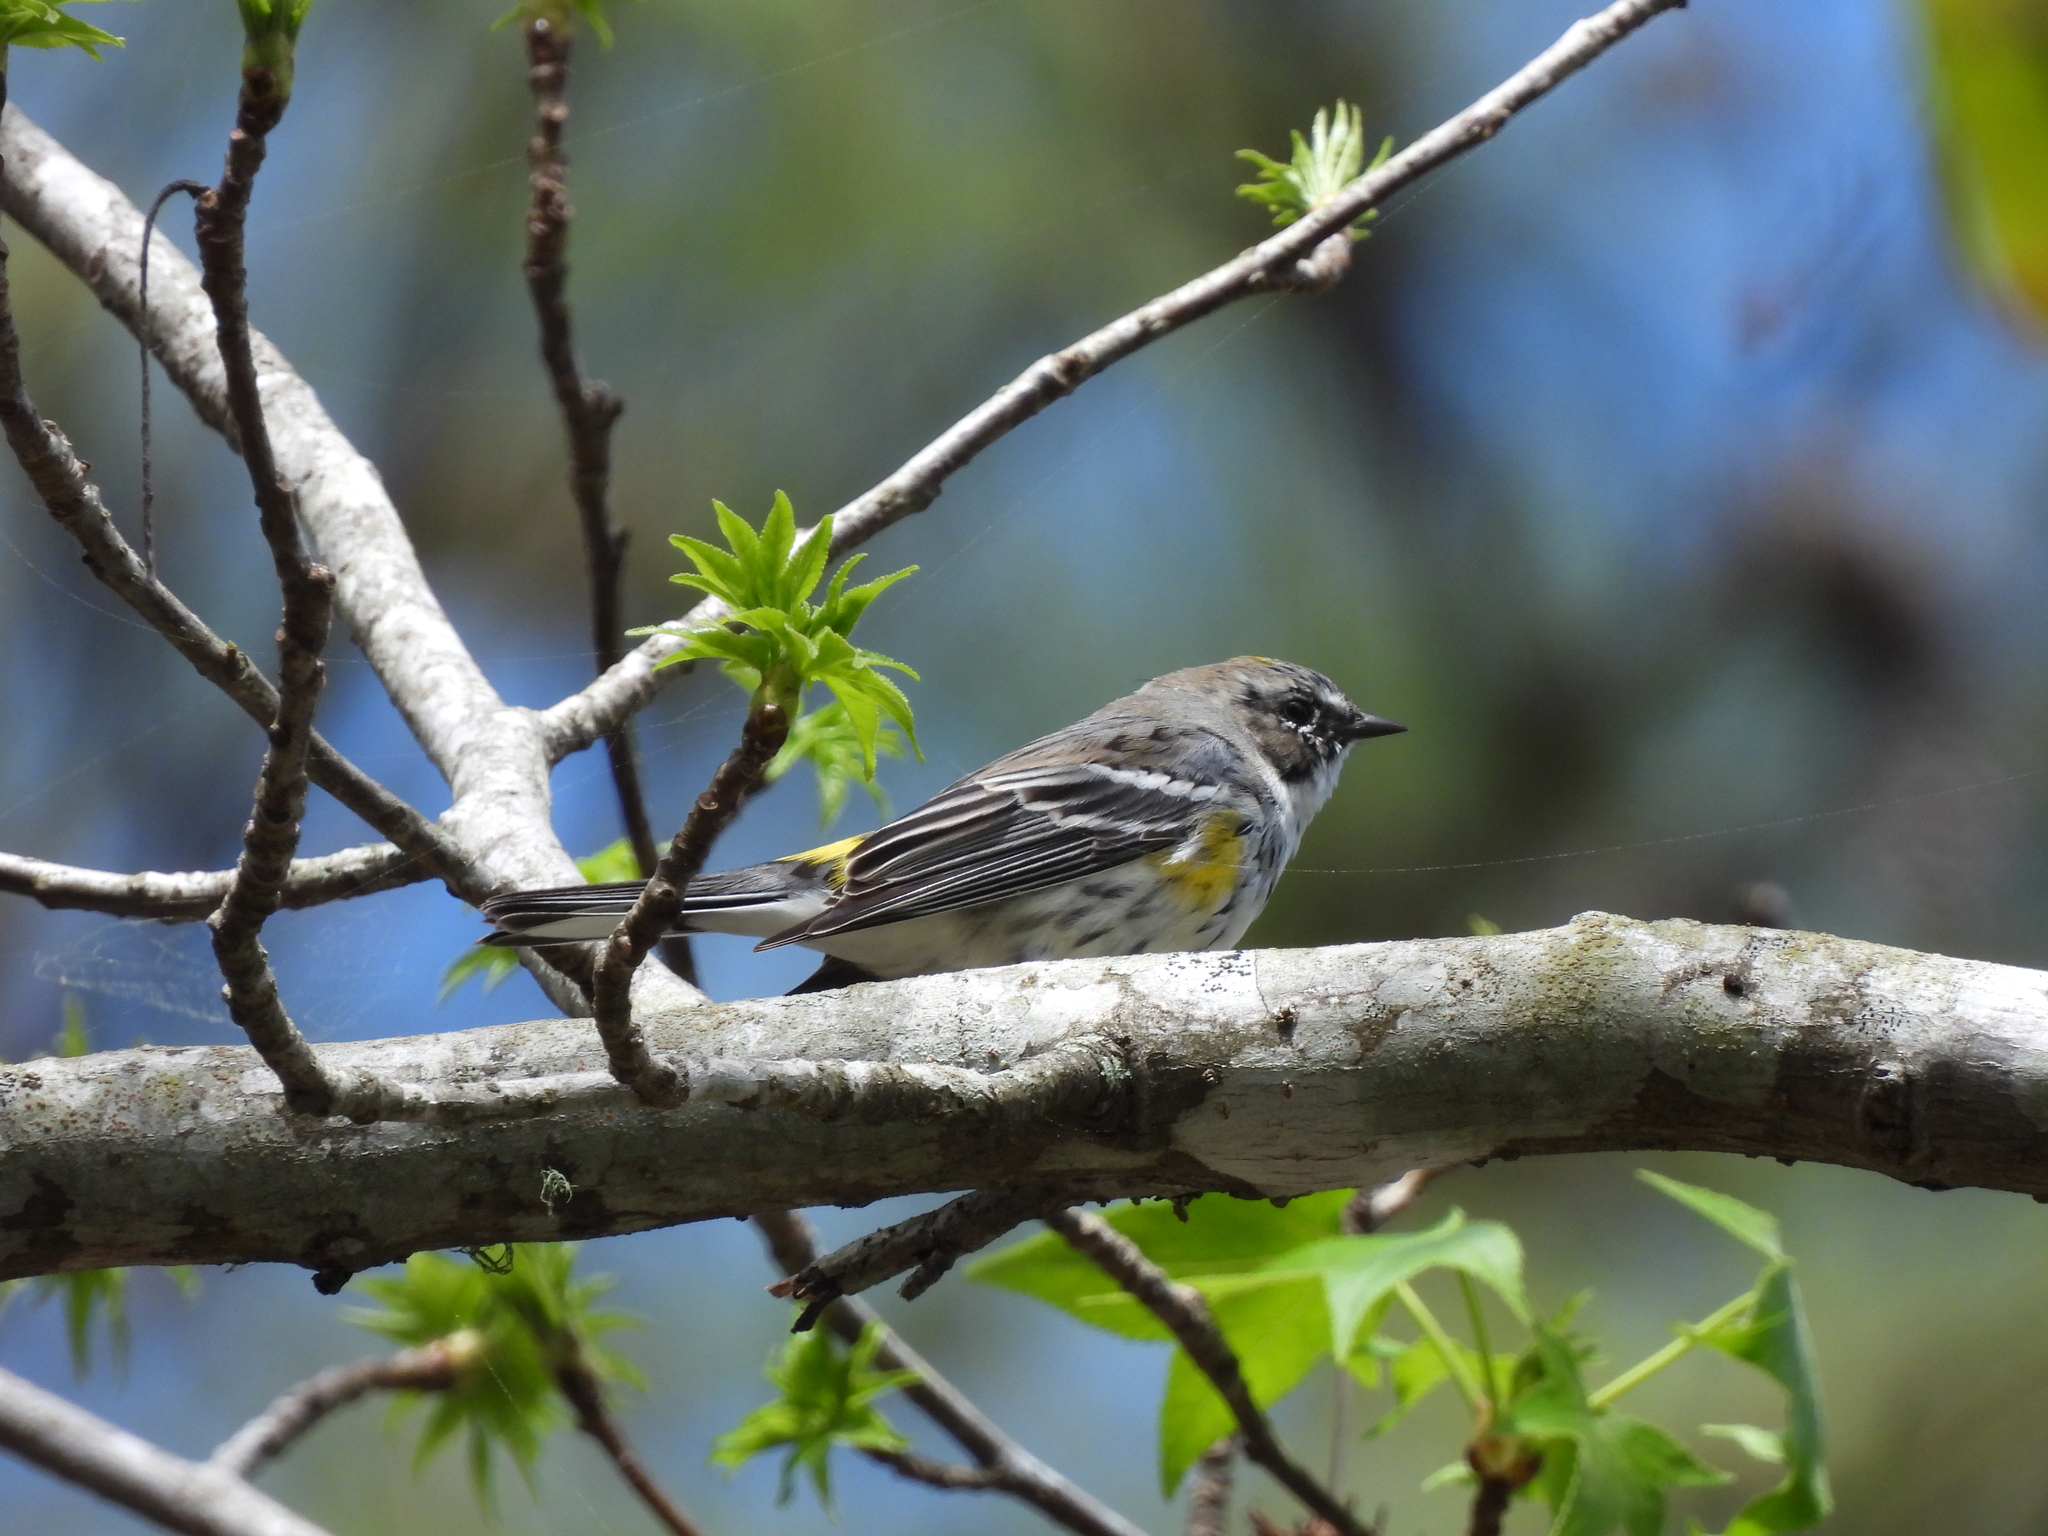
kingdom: Animalia
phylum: Chordata
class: Aves
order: Passeriformes
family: Parulidae
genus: Setophaga
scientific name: Setophaga coronata
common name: Myrtle warbler
